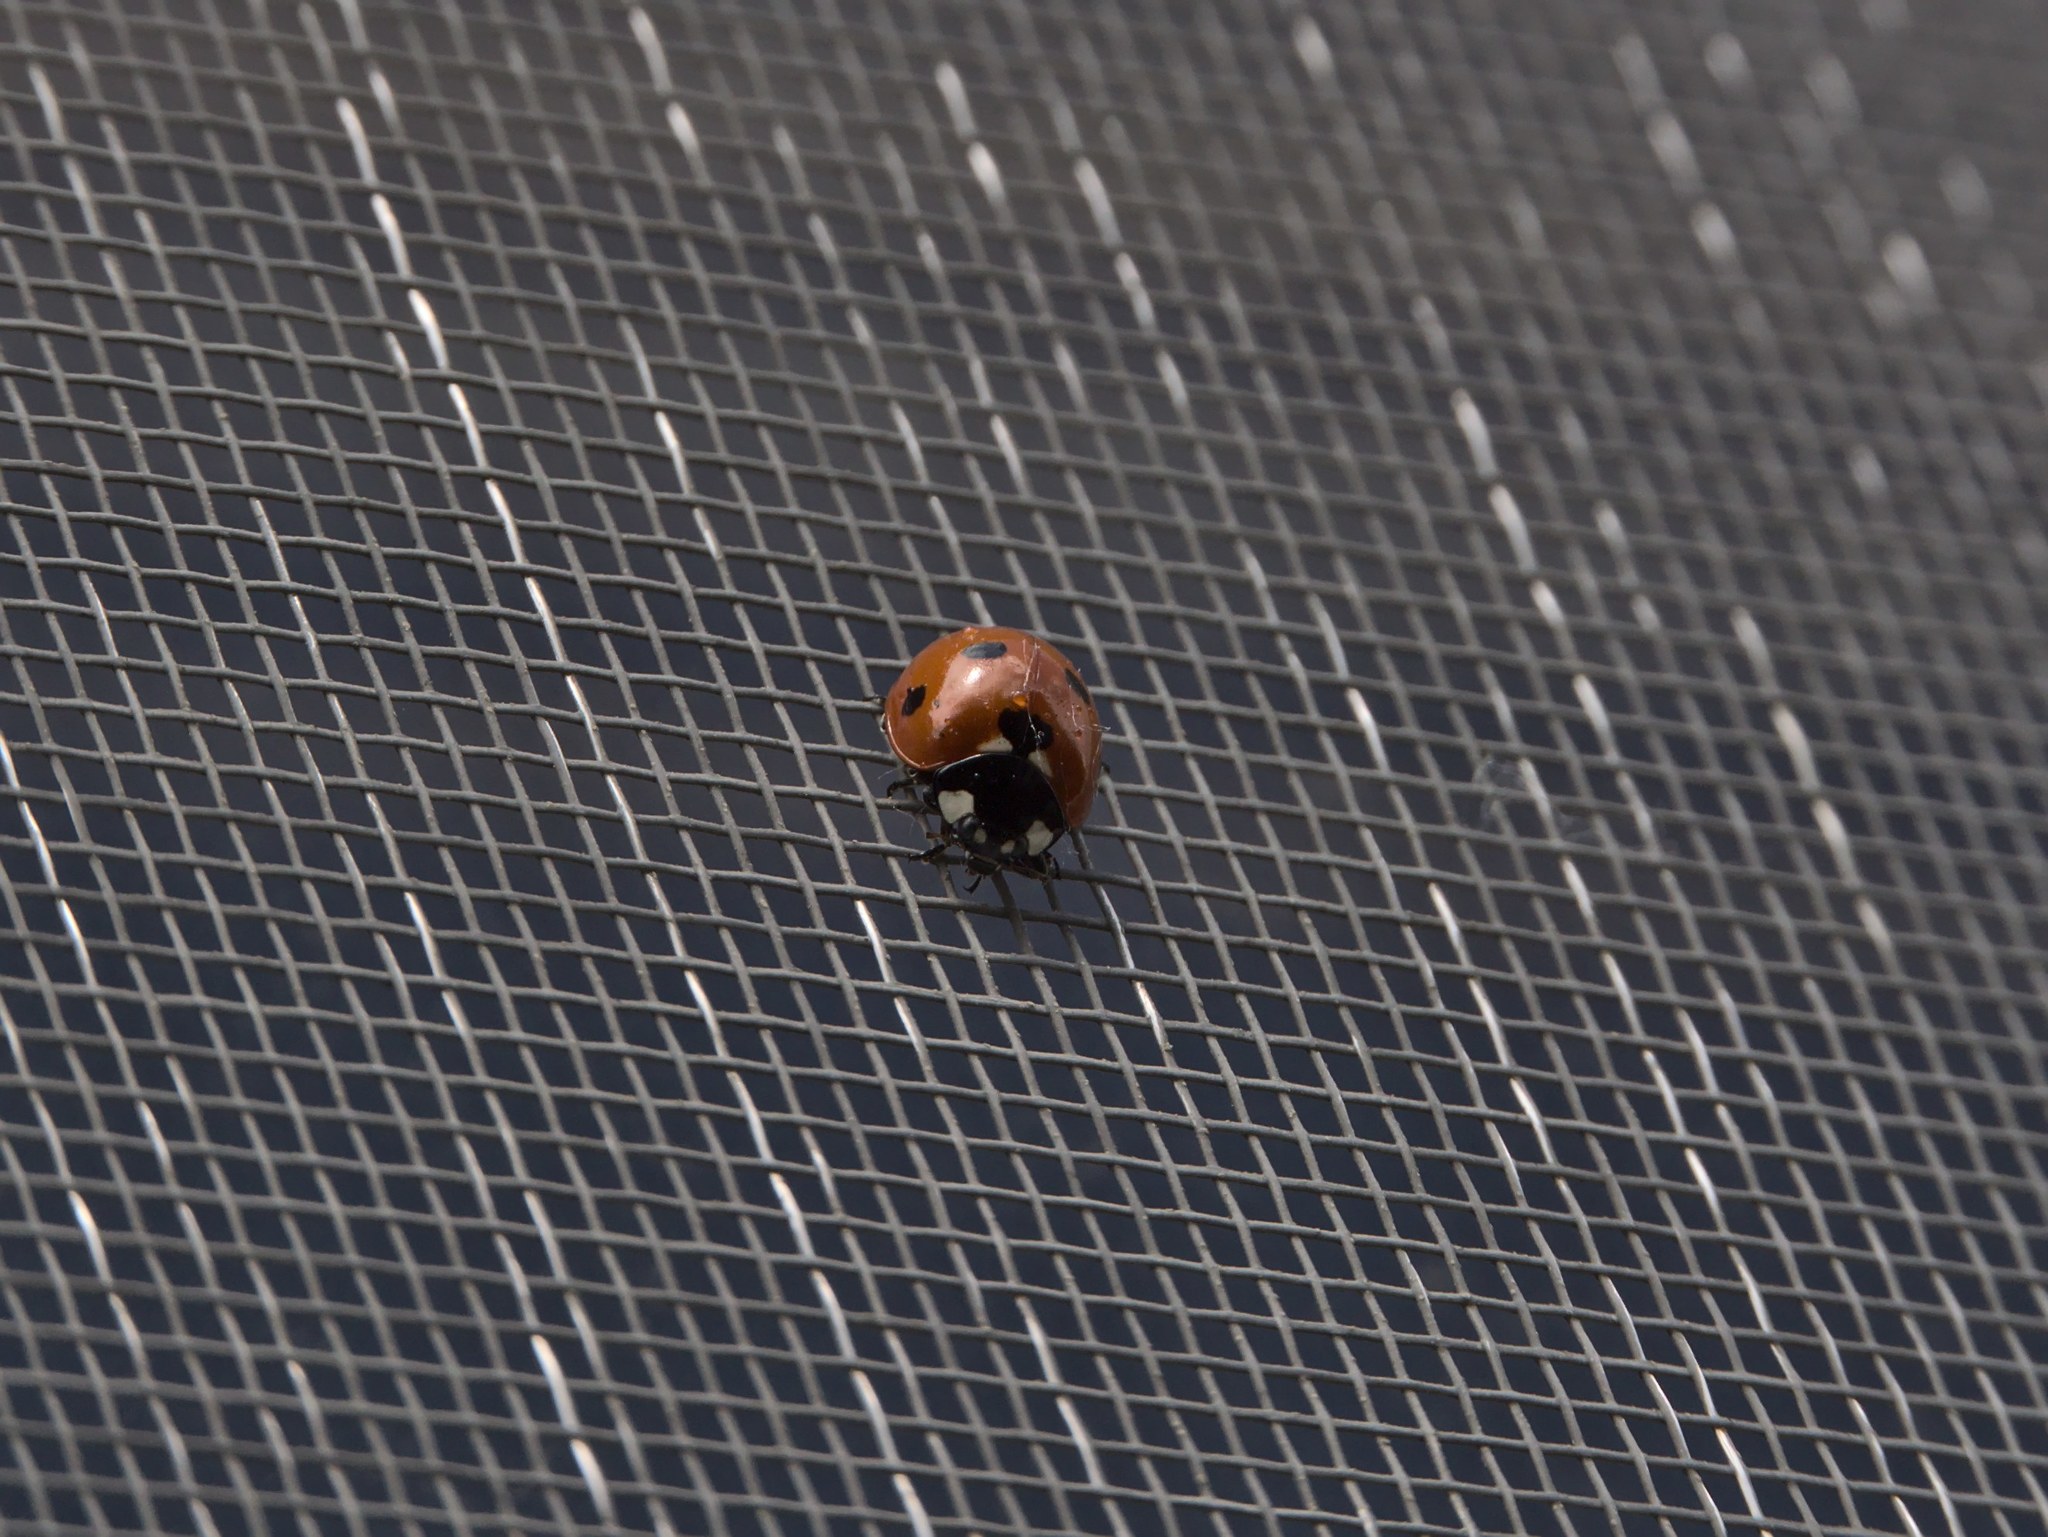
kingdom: Animalia
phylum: Arthropoda
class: Insecta
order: Coleoptera
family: Coccinellidae
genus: Coccinella
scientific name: Coccinella septempunctata
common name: Sevenspotted lady beetle
